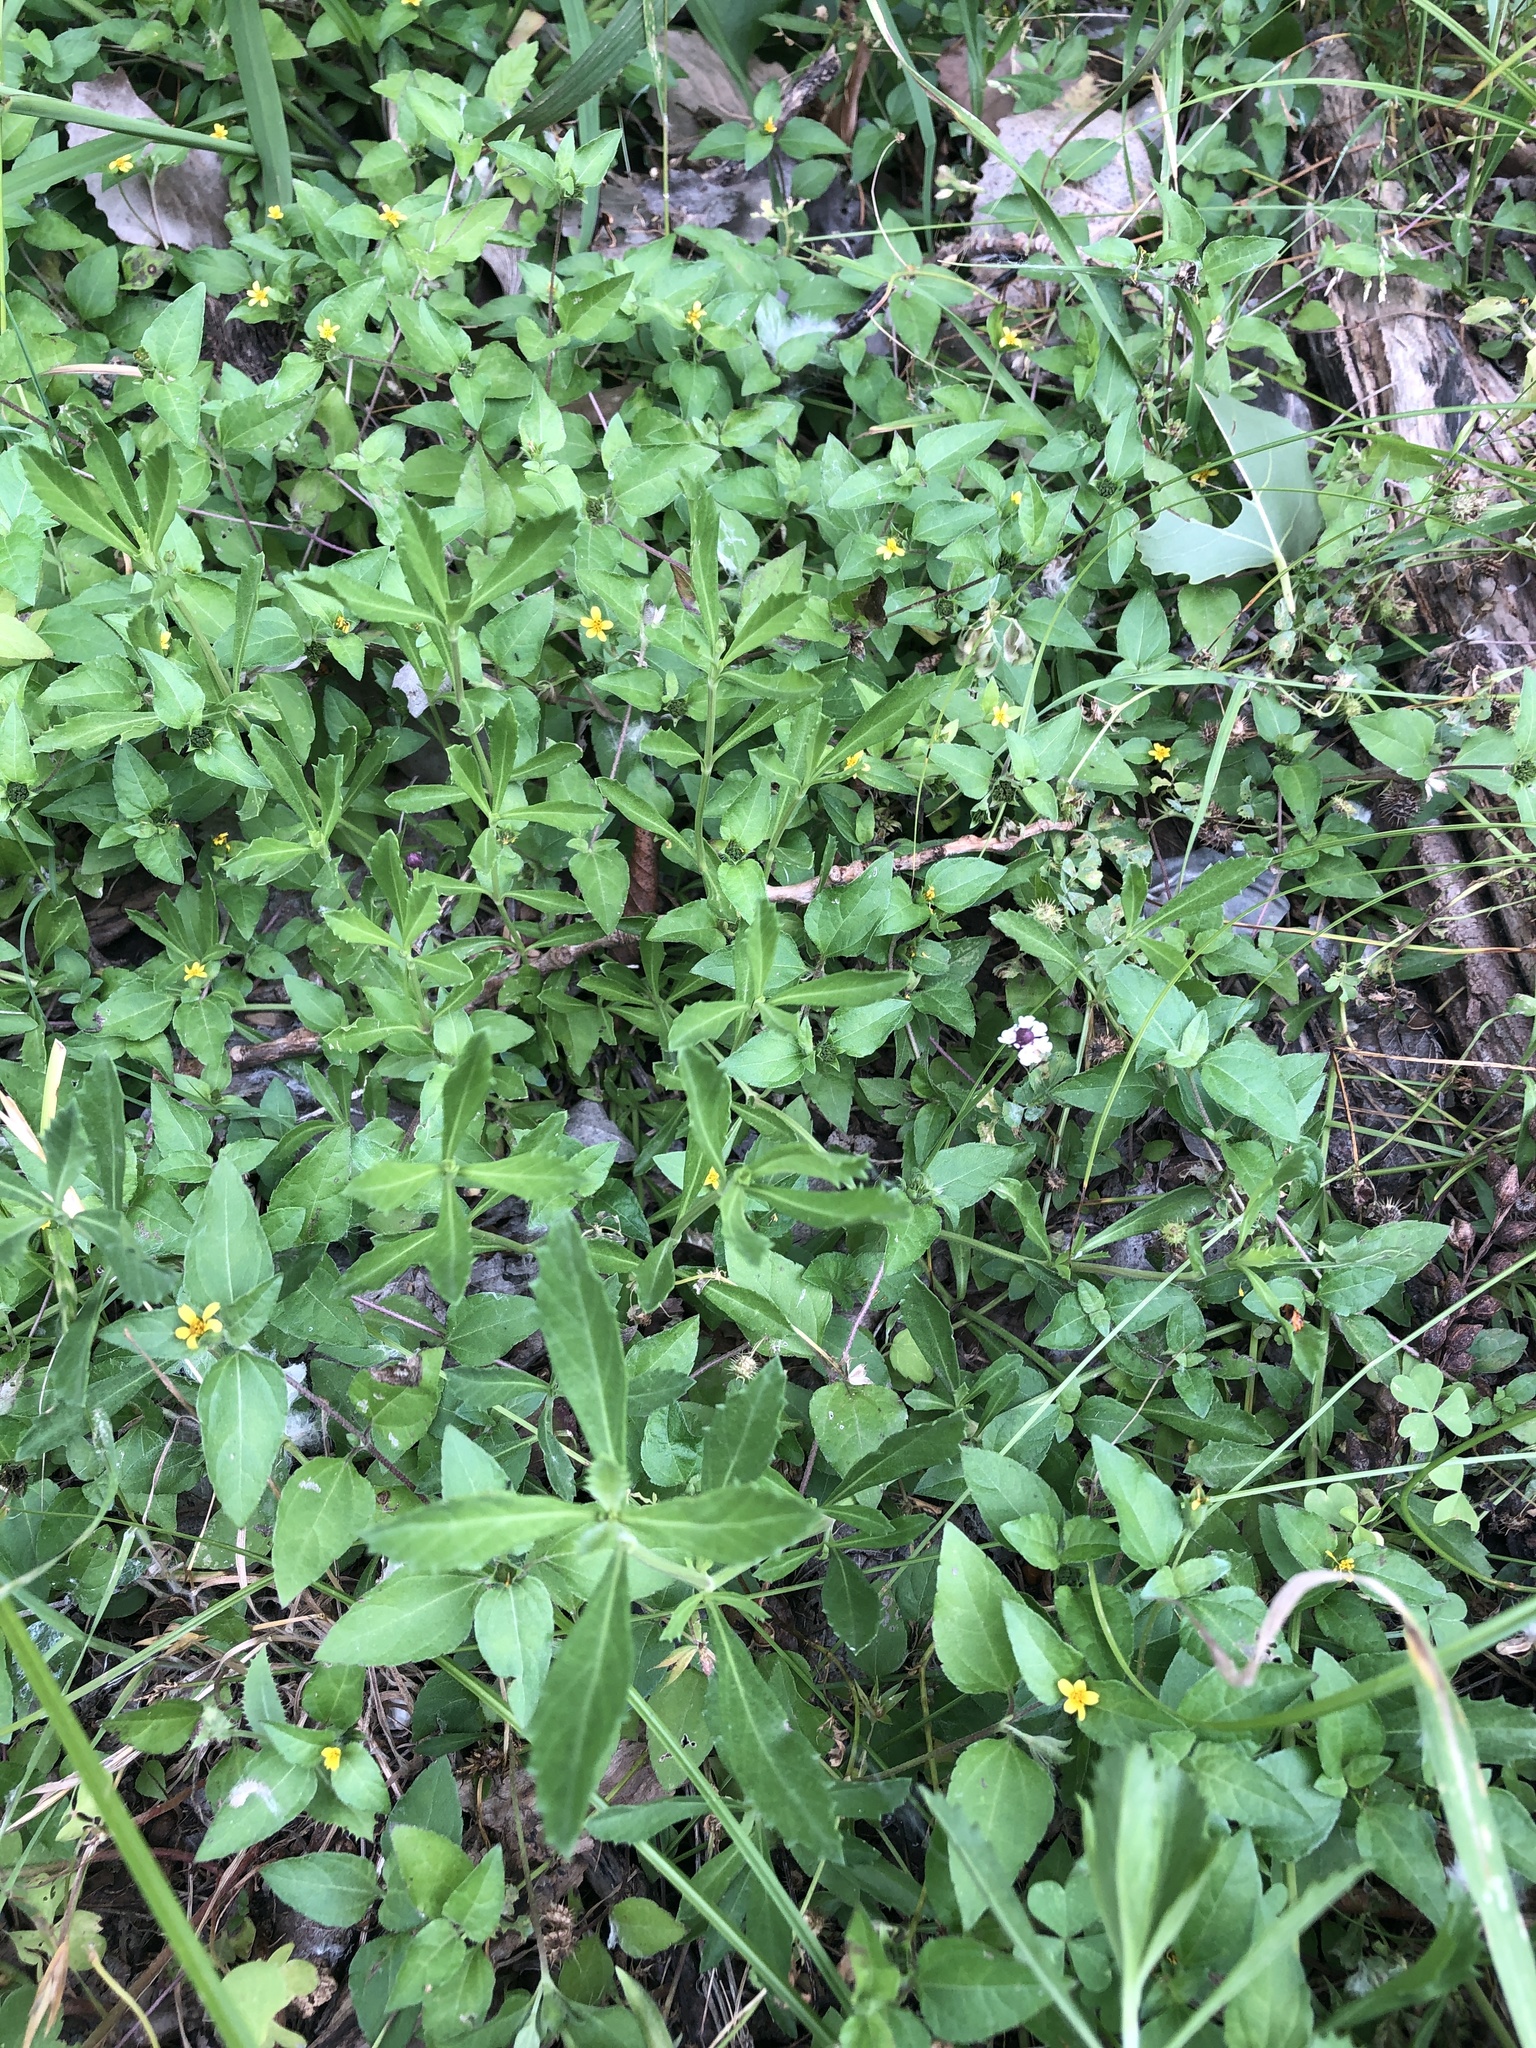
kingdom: Plantae
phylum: Tracheophyta
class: Magnoliopsida
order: Lamiales
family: Verbenaceae
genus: Phyla
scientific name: Phyla nodiflora
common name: Frogfruit
